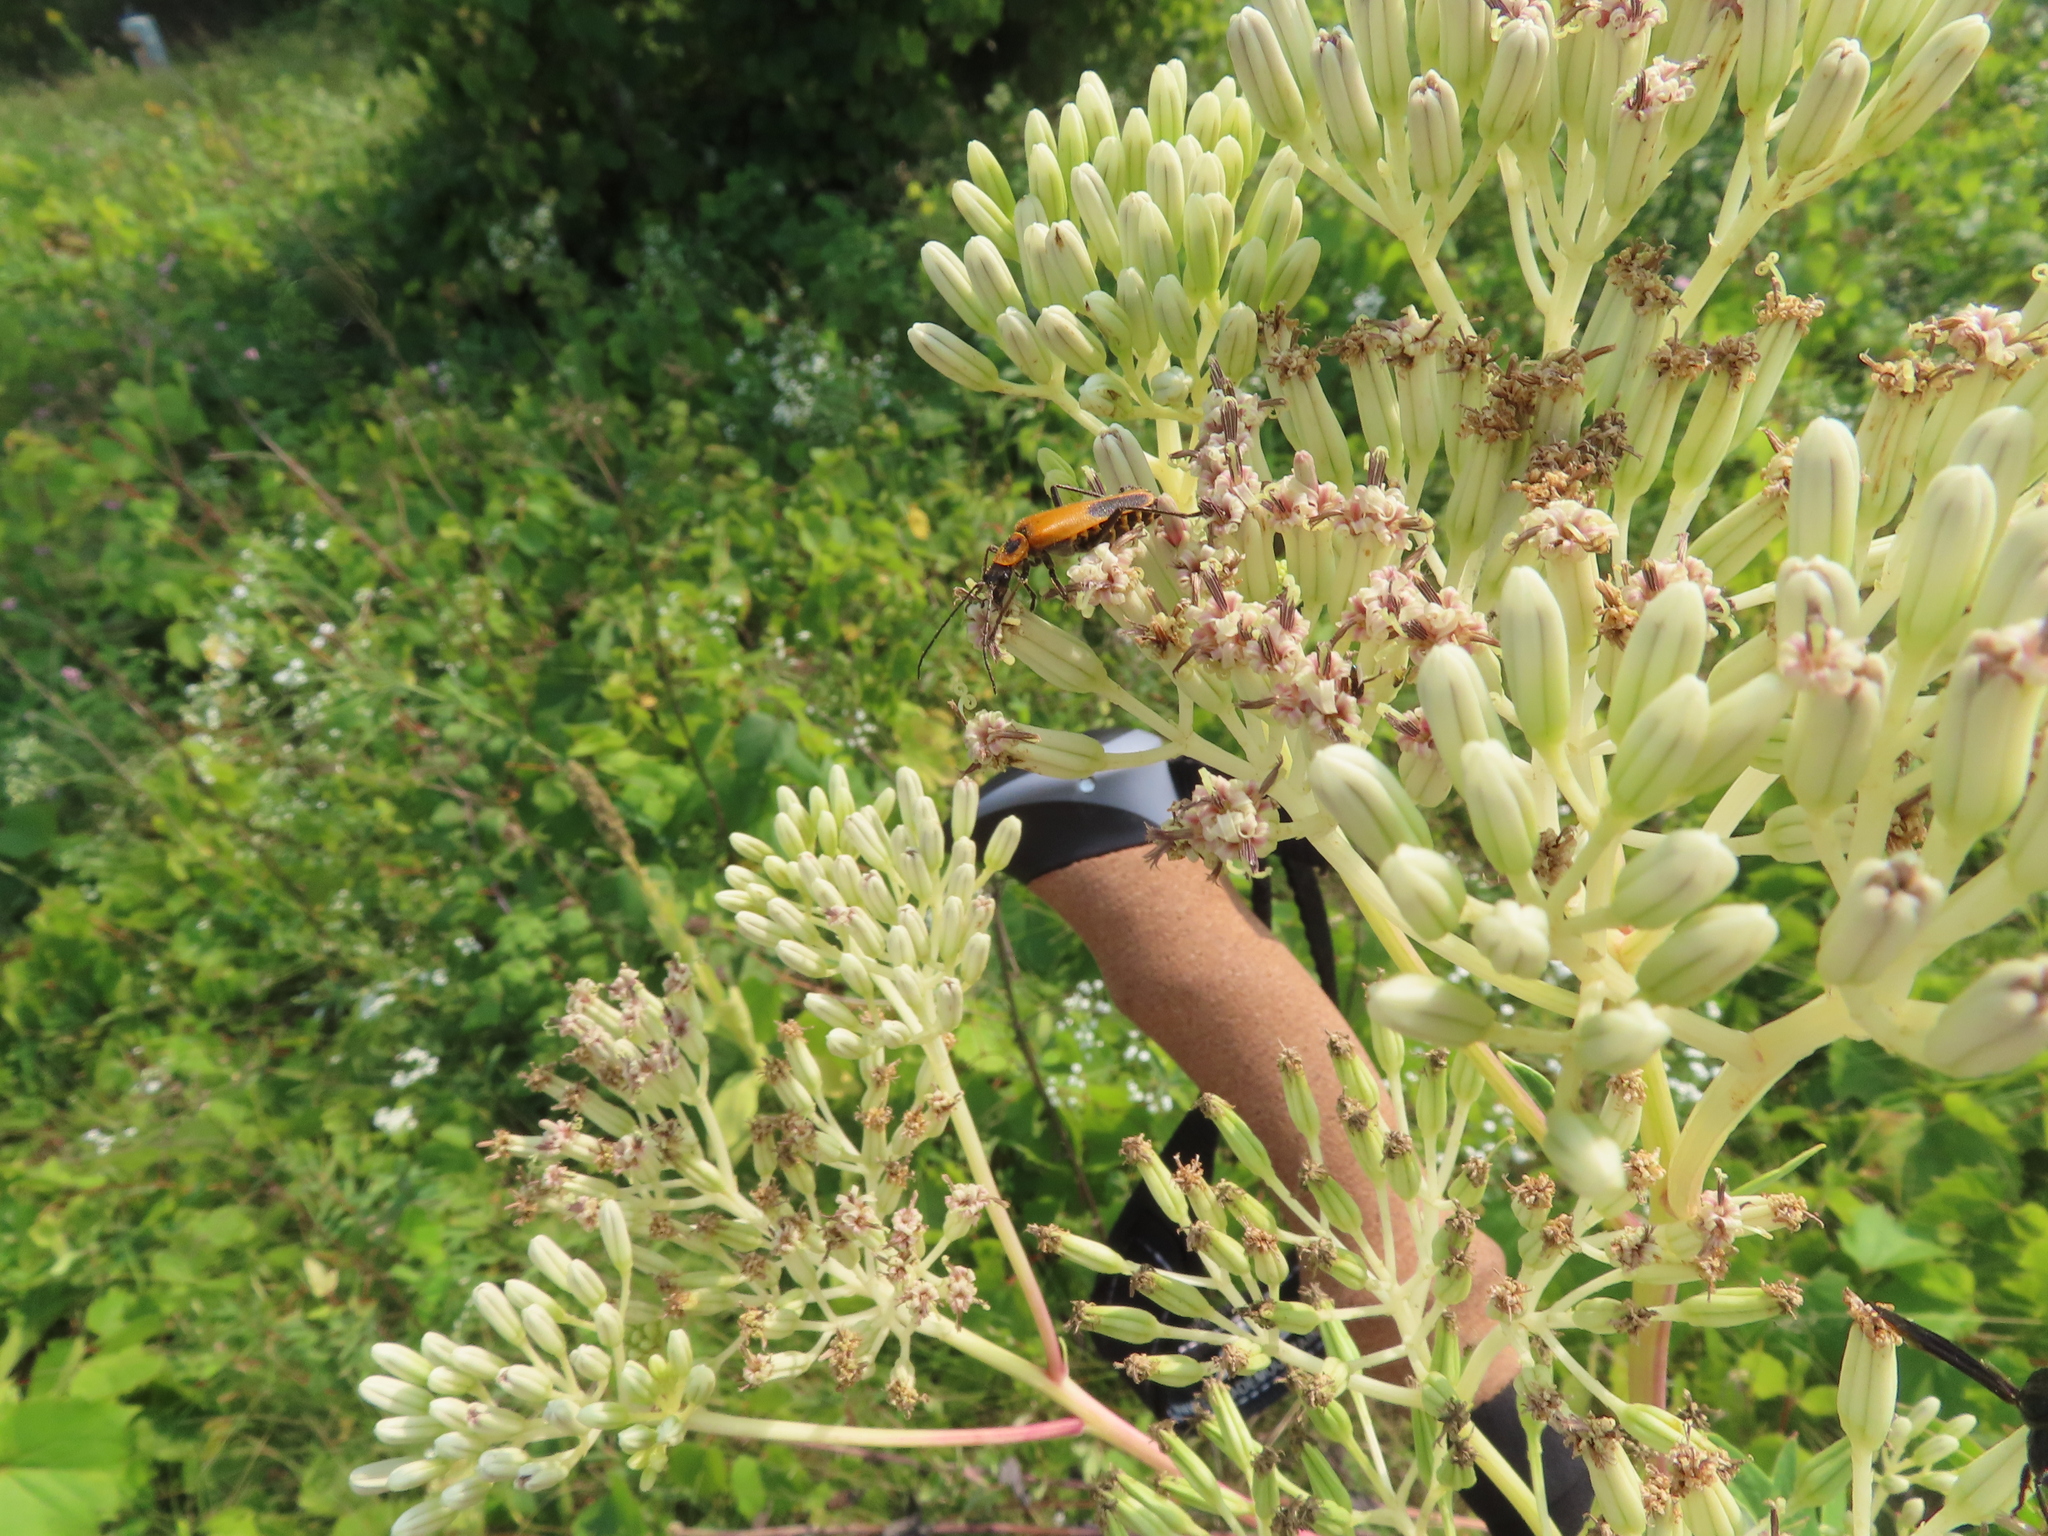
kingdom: Animalia
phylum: Arthropoda
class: Insecta
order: Coleoptera
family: Cantharidae
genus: Chauliognathus
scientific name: Chauliognathus pensylvanicus
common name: Goldenrod soldier beetle
